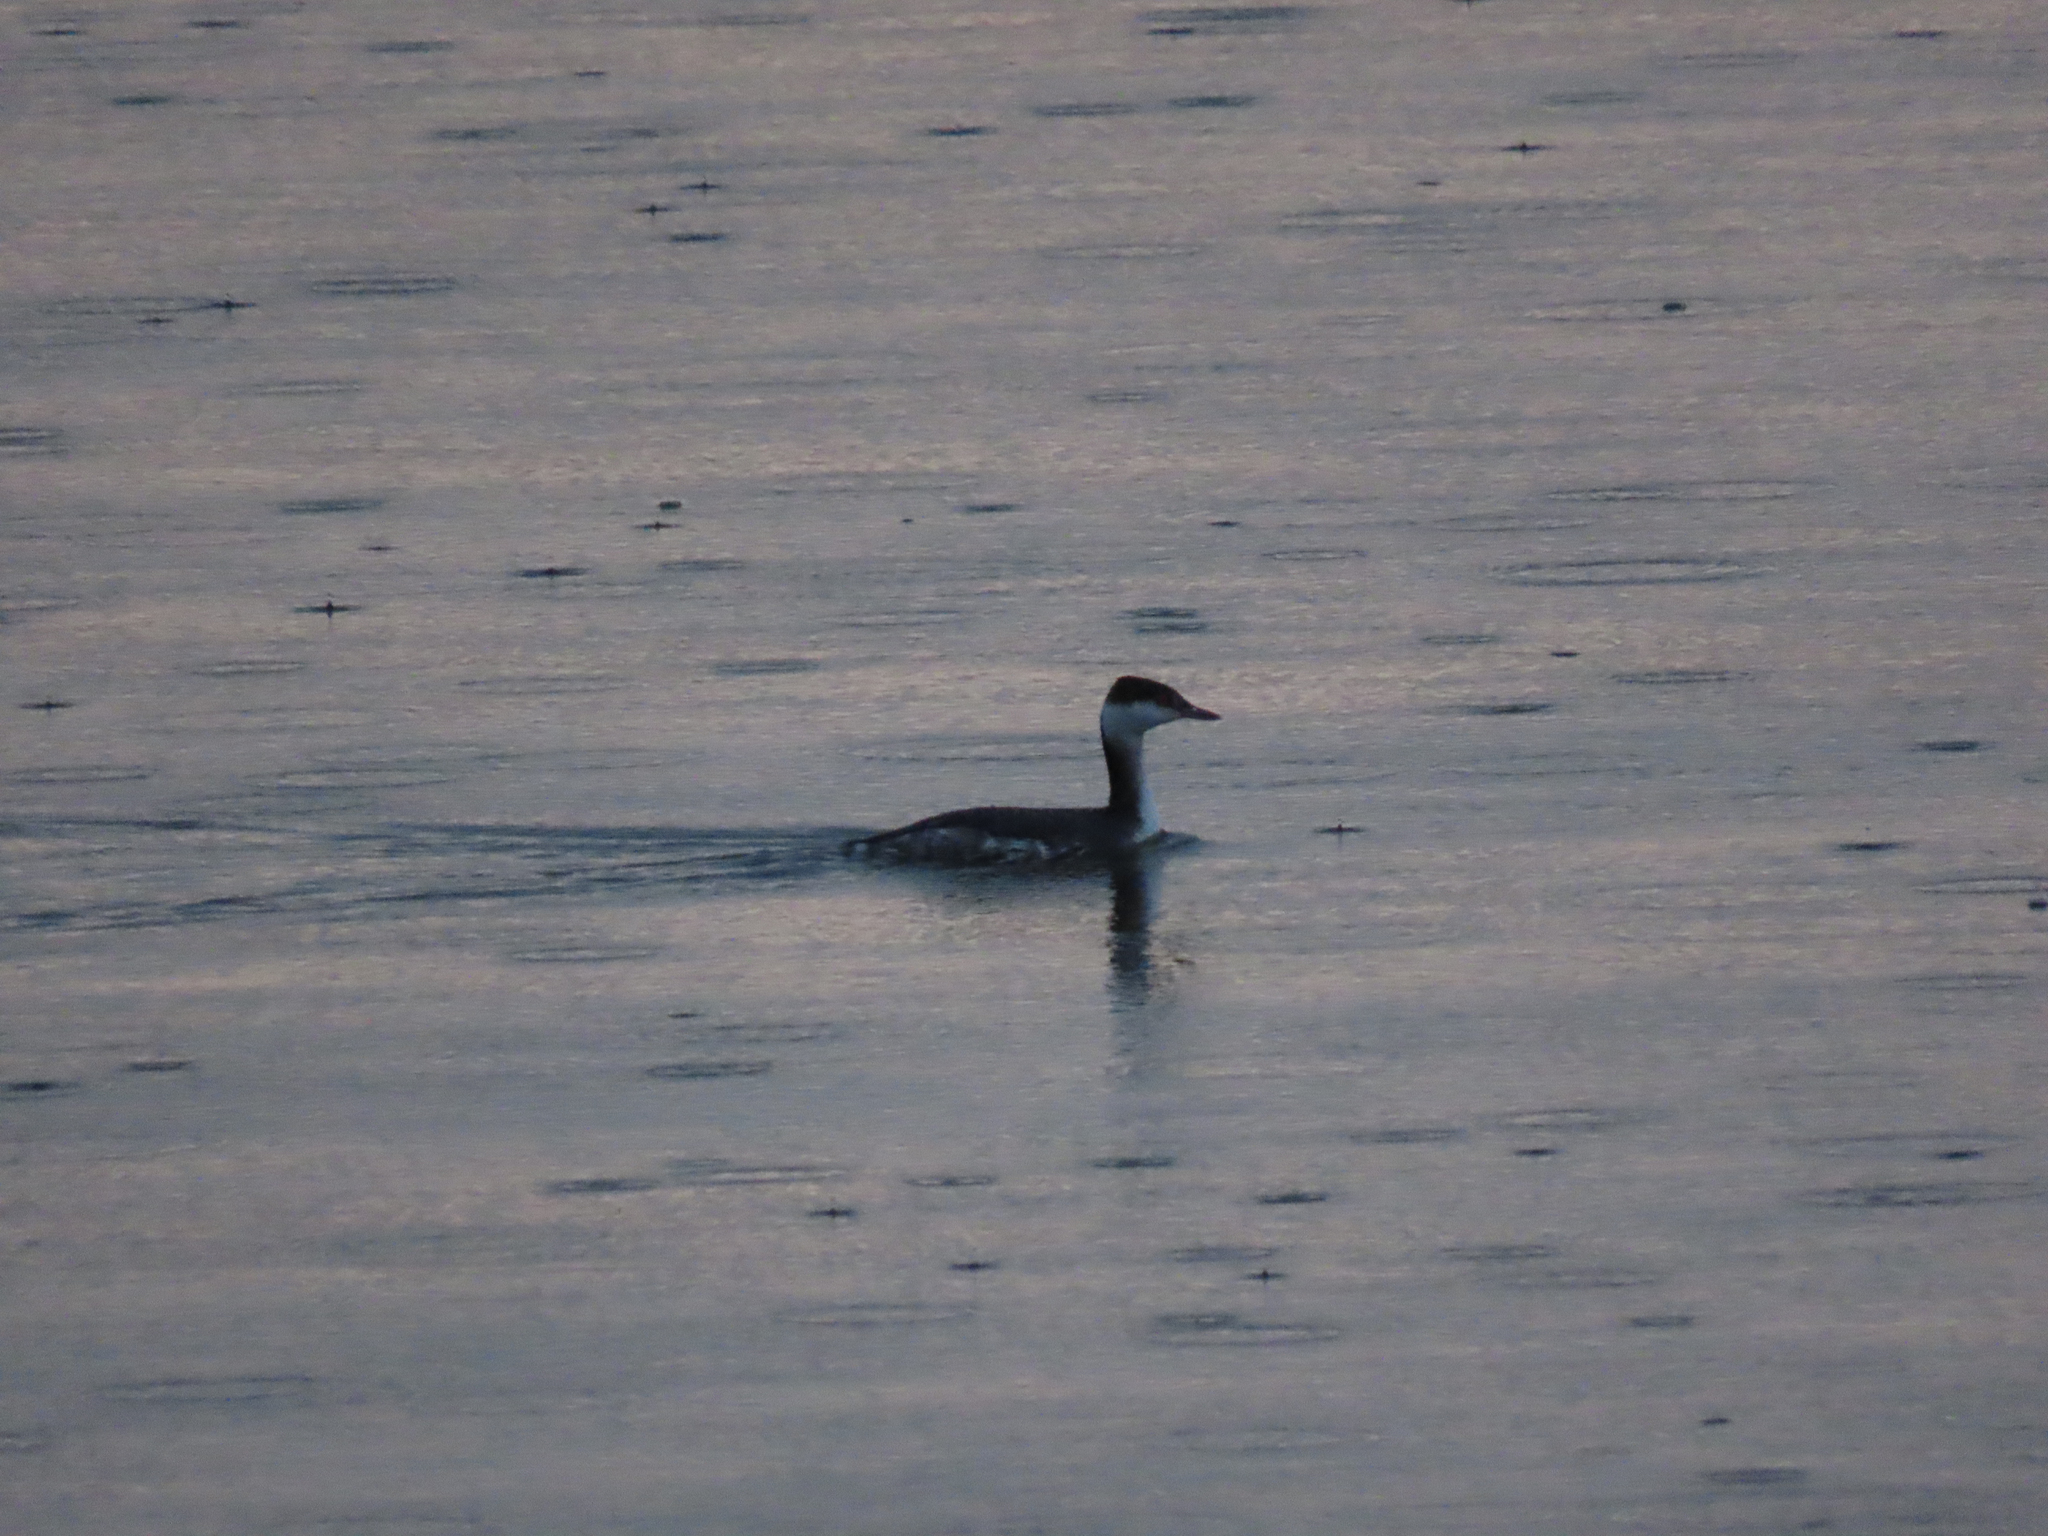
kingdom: Animalia
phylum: Chordata
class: Aves
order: Podicipediformes
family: Podicipedidae
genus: Podiceps
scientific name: Podiceps auritus
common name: Horned grebe
